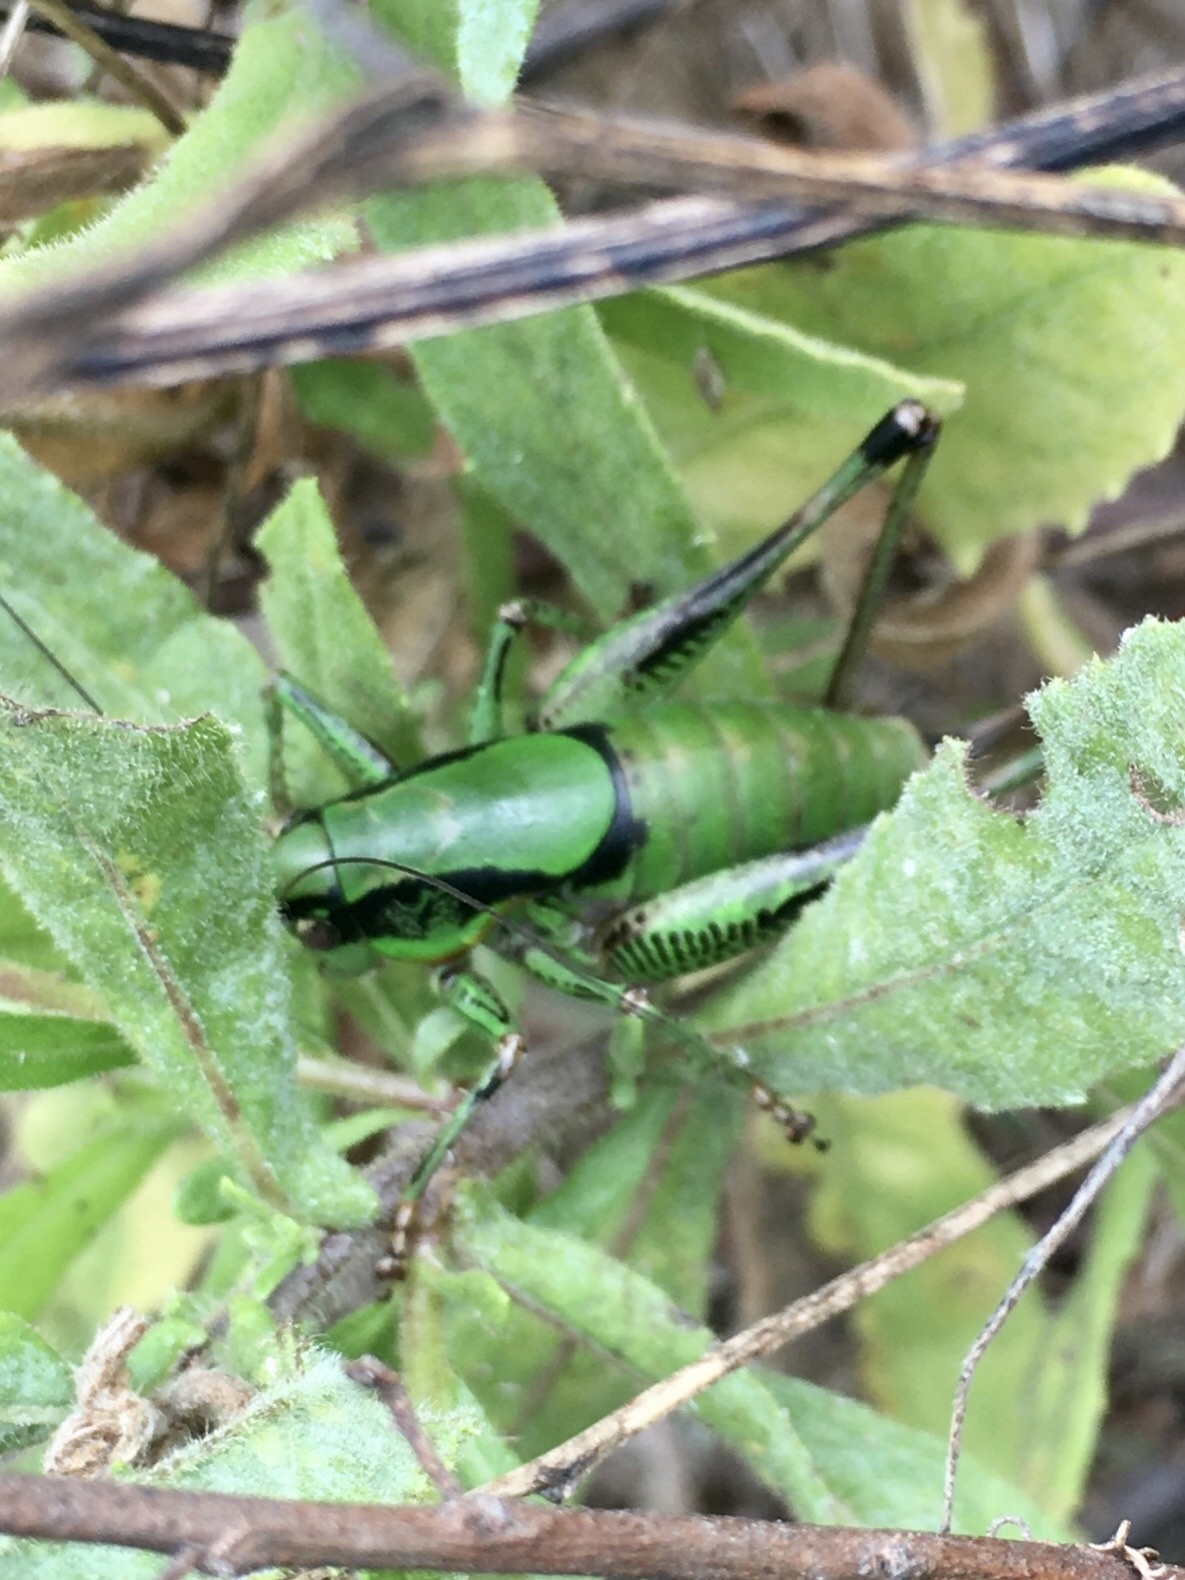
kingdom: Animalia
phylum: Arthropoda
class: Insecta
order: Orthoptera
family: Tettigoniidae
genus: Eupholidoptera
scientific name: Eupholidoptera schmidti
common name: Schmidt's marbled bush-cricket
